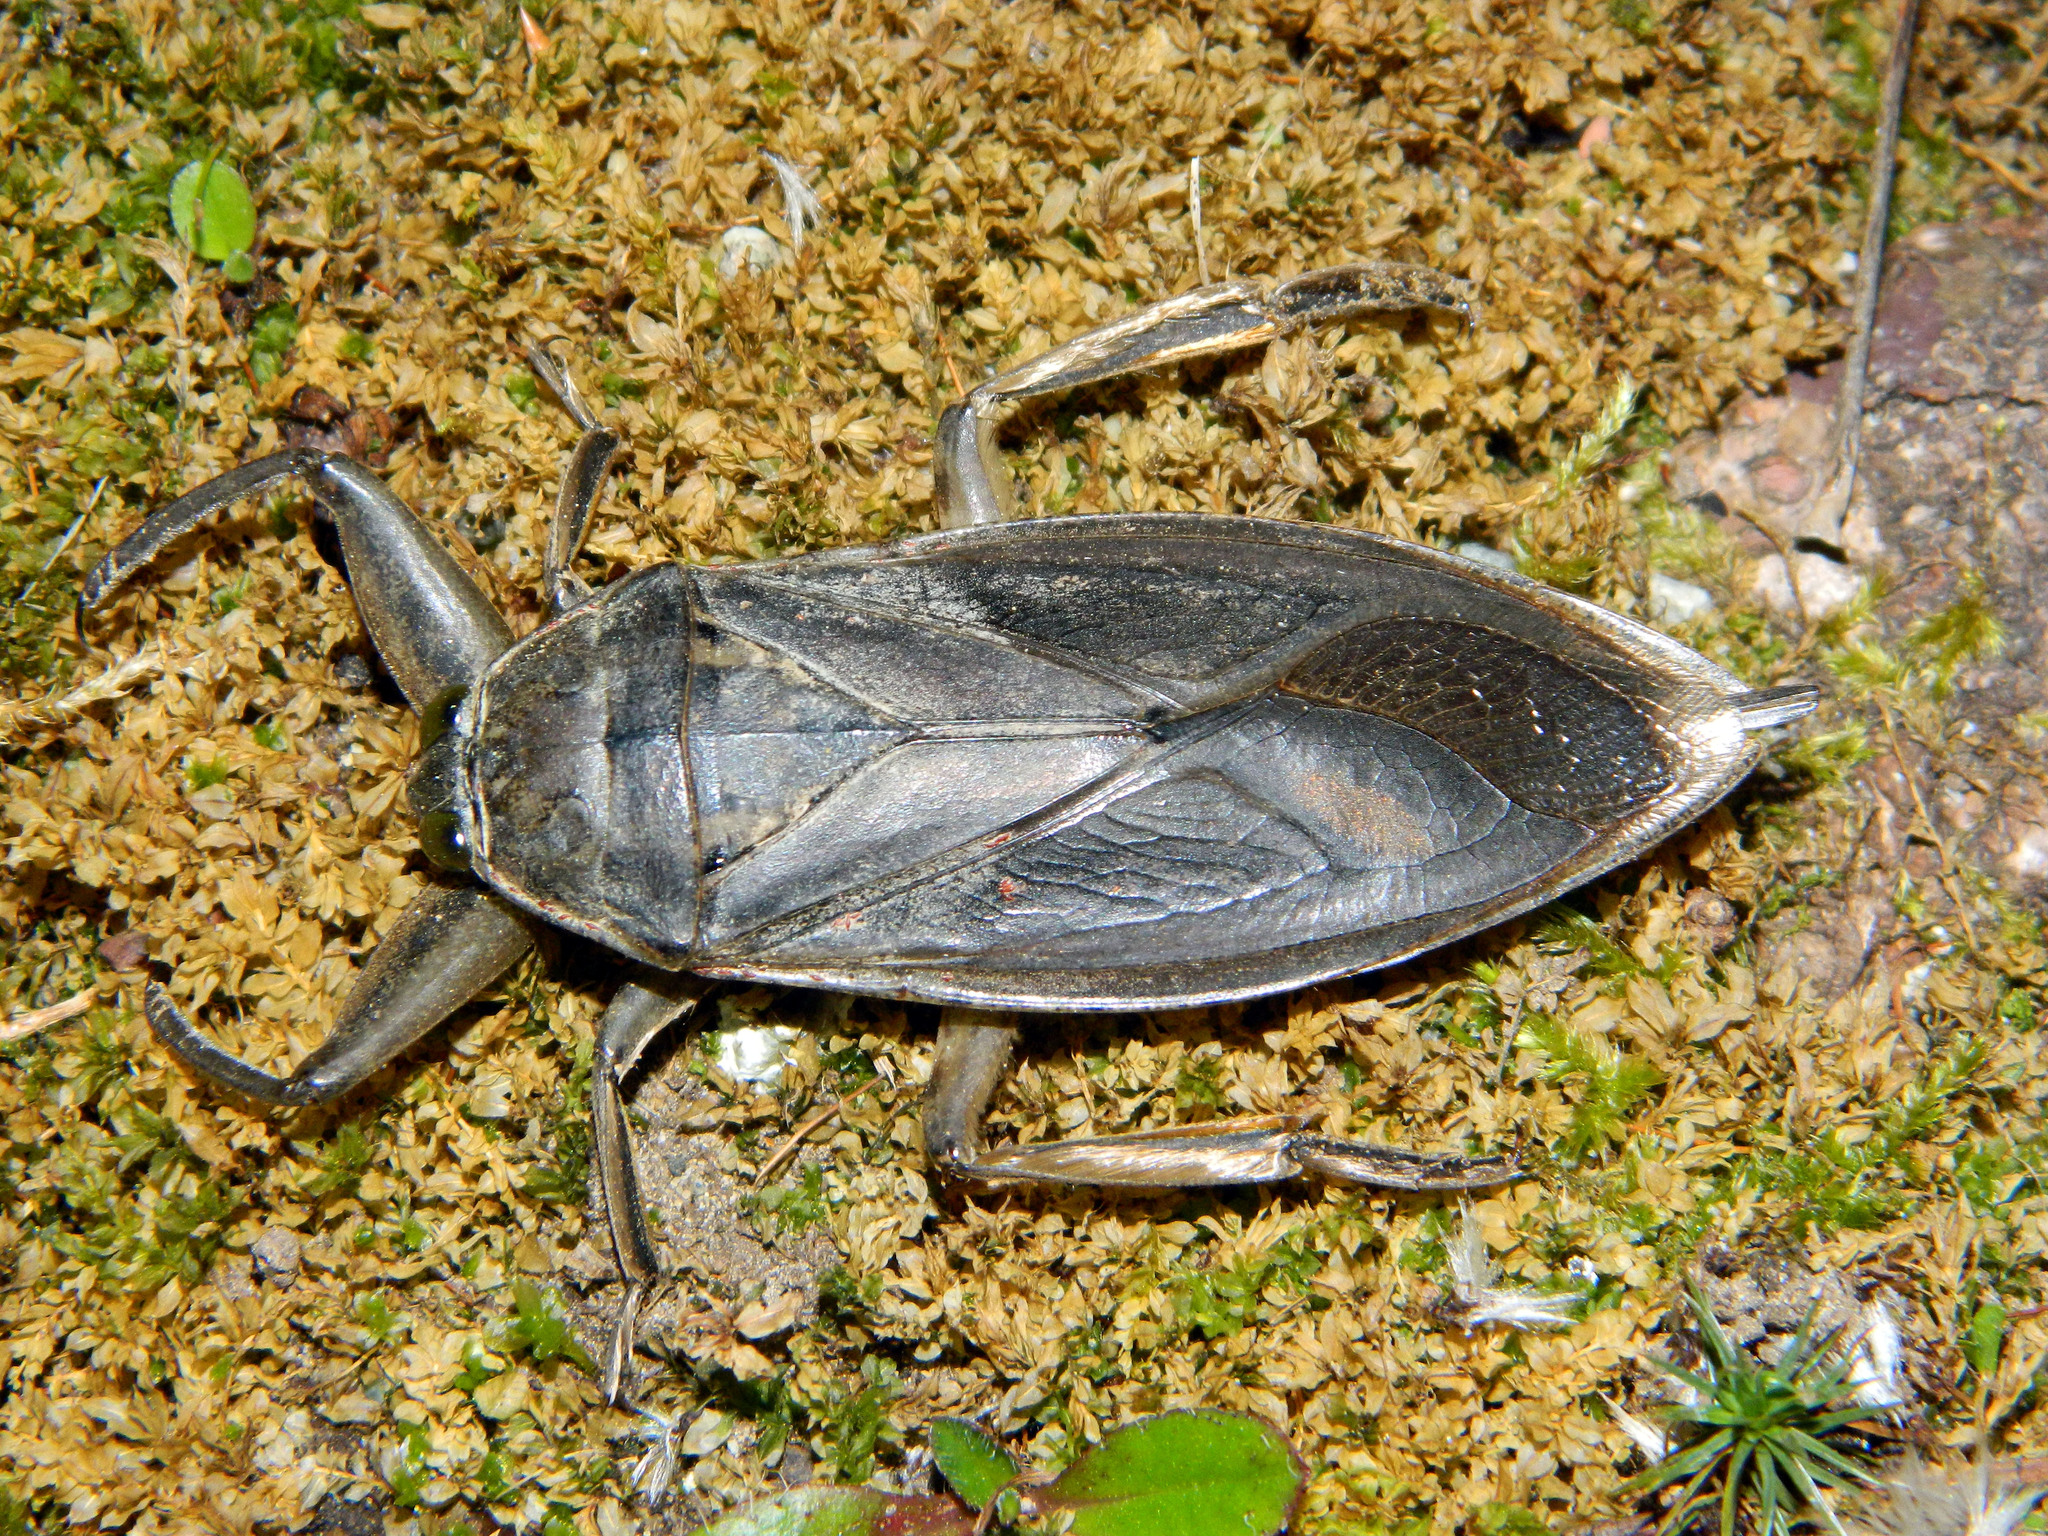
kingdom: Animalia
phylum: Arthropoda
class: Insecta
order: Hemiptera
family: Belostomatidae
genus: Lethocerus
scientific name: Lethocerus americanus
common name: Giant water bug
